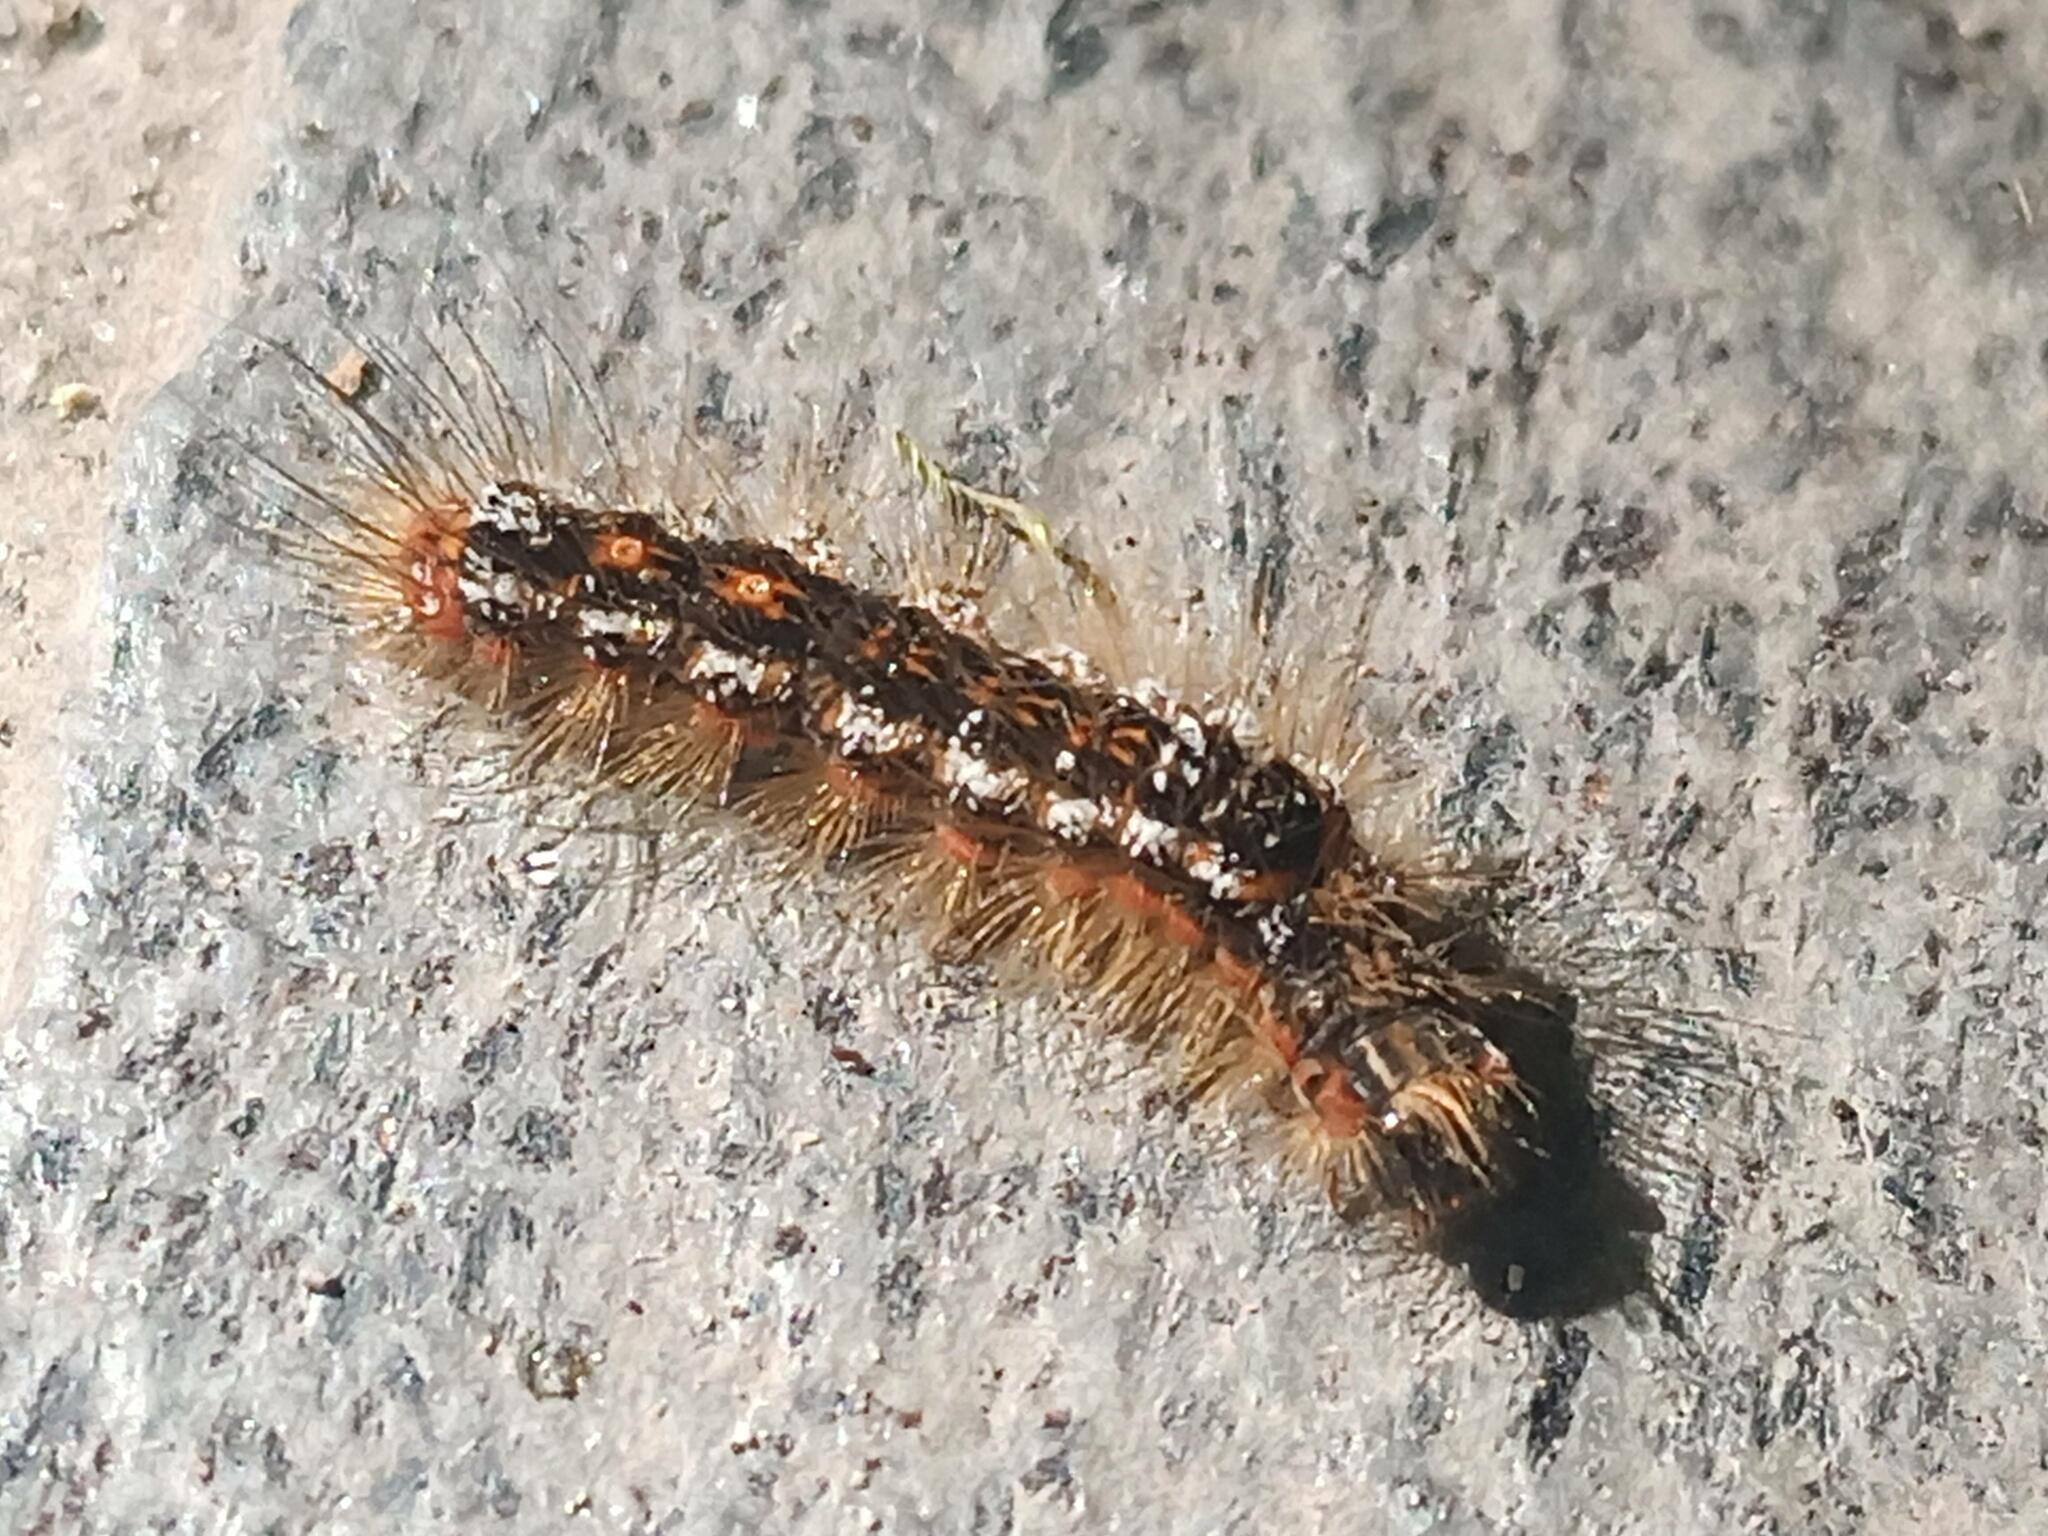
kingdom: Animalia
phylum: Arthropoda
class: Insecta
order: Lepidoptera
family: Erebidae
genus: Euproctis
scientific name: Euproctis chrysorrhoea
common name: Brown-tail
